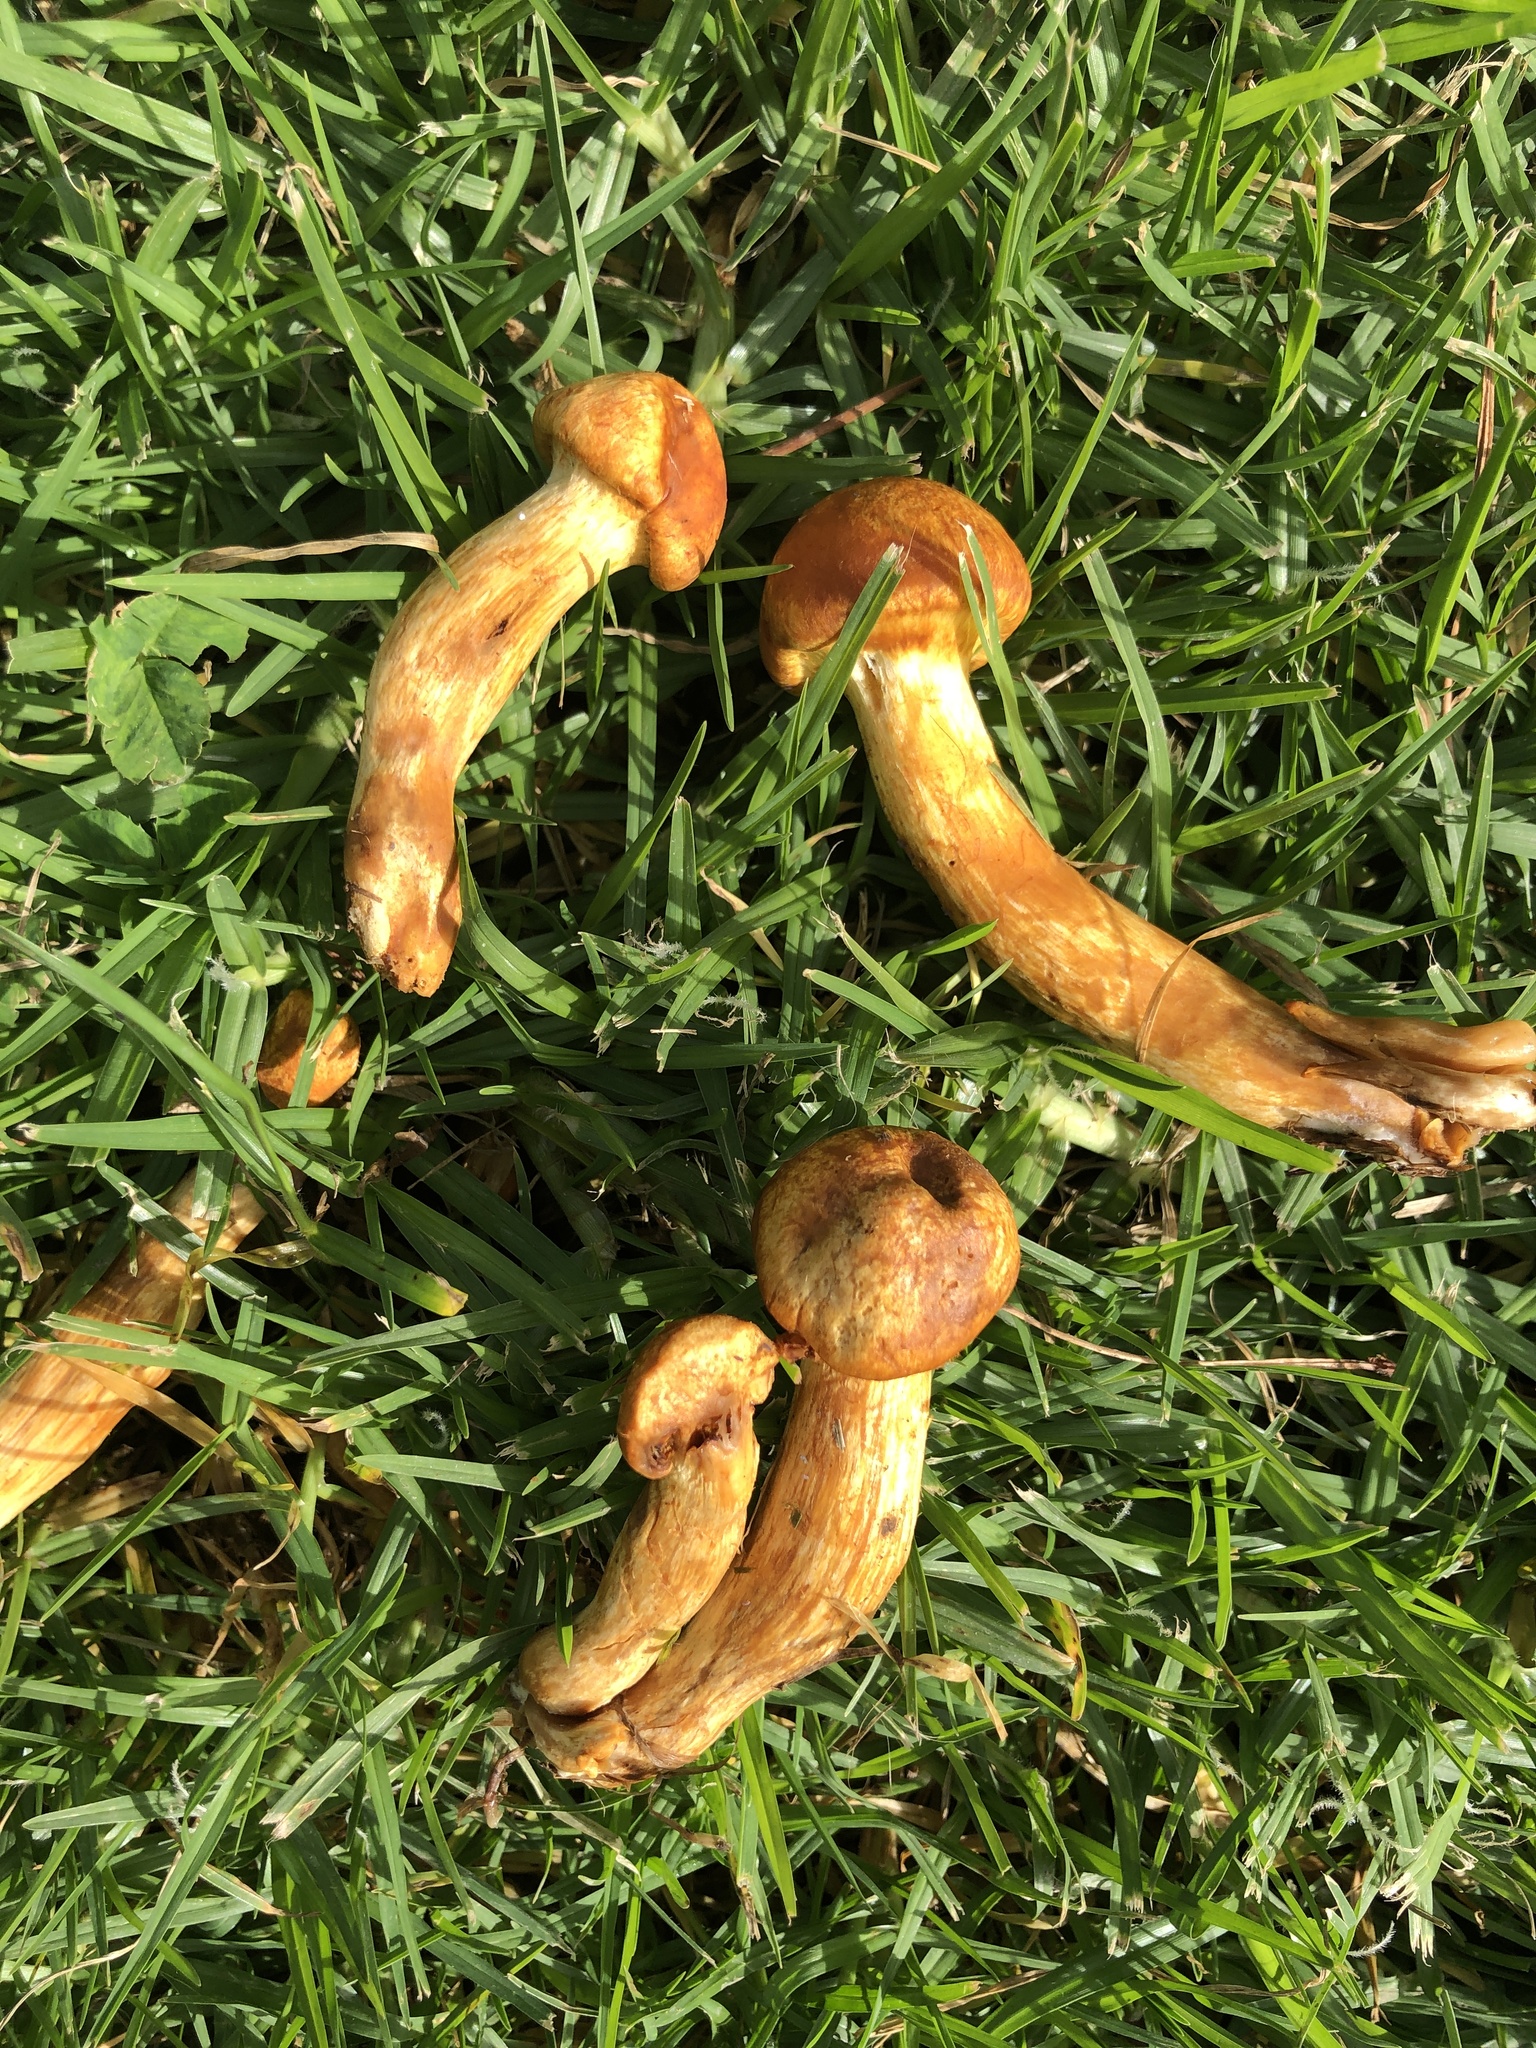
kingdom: Fungi
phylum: Basidiomycota
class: Agaricomycetes
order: Agaricales
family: Hymenogastraceae
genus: Gymnopilus
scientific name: Gymnopilus junonius
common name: Spectacular rustgill
